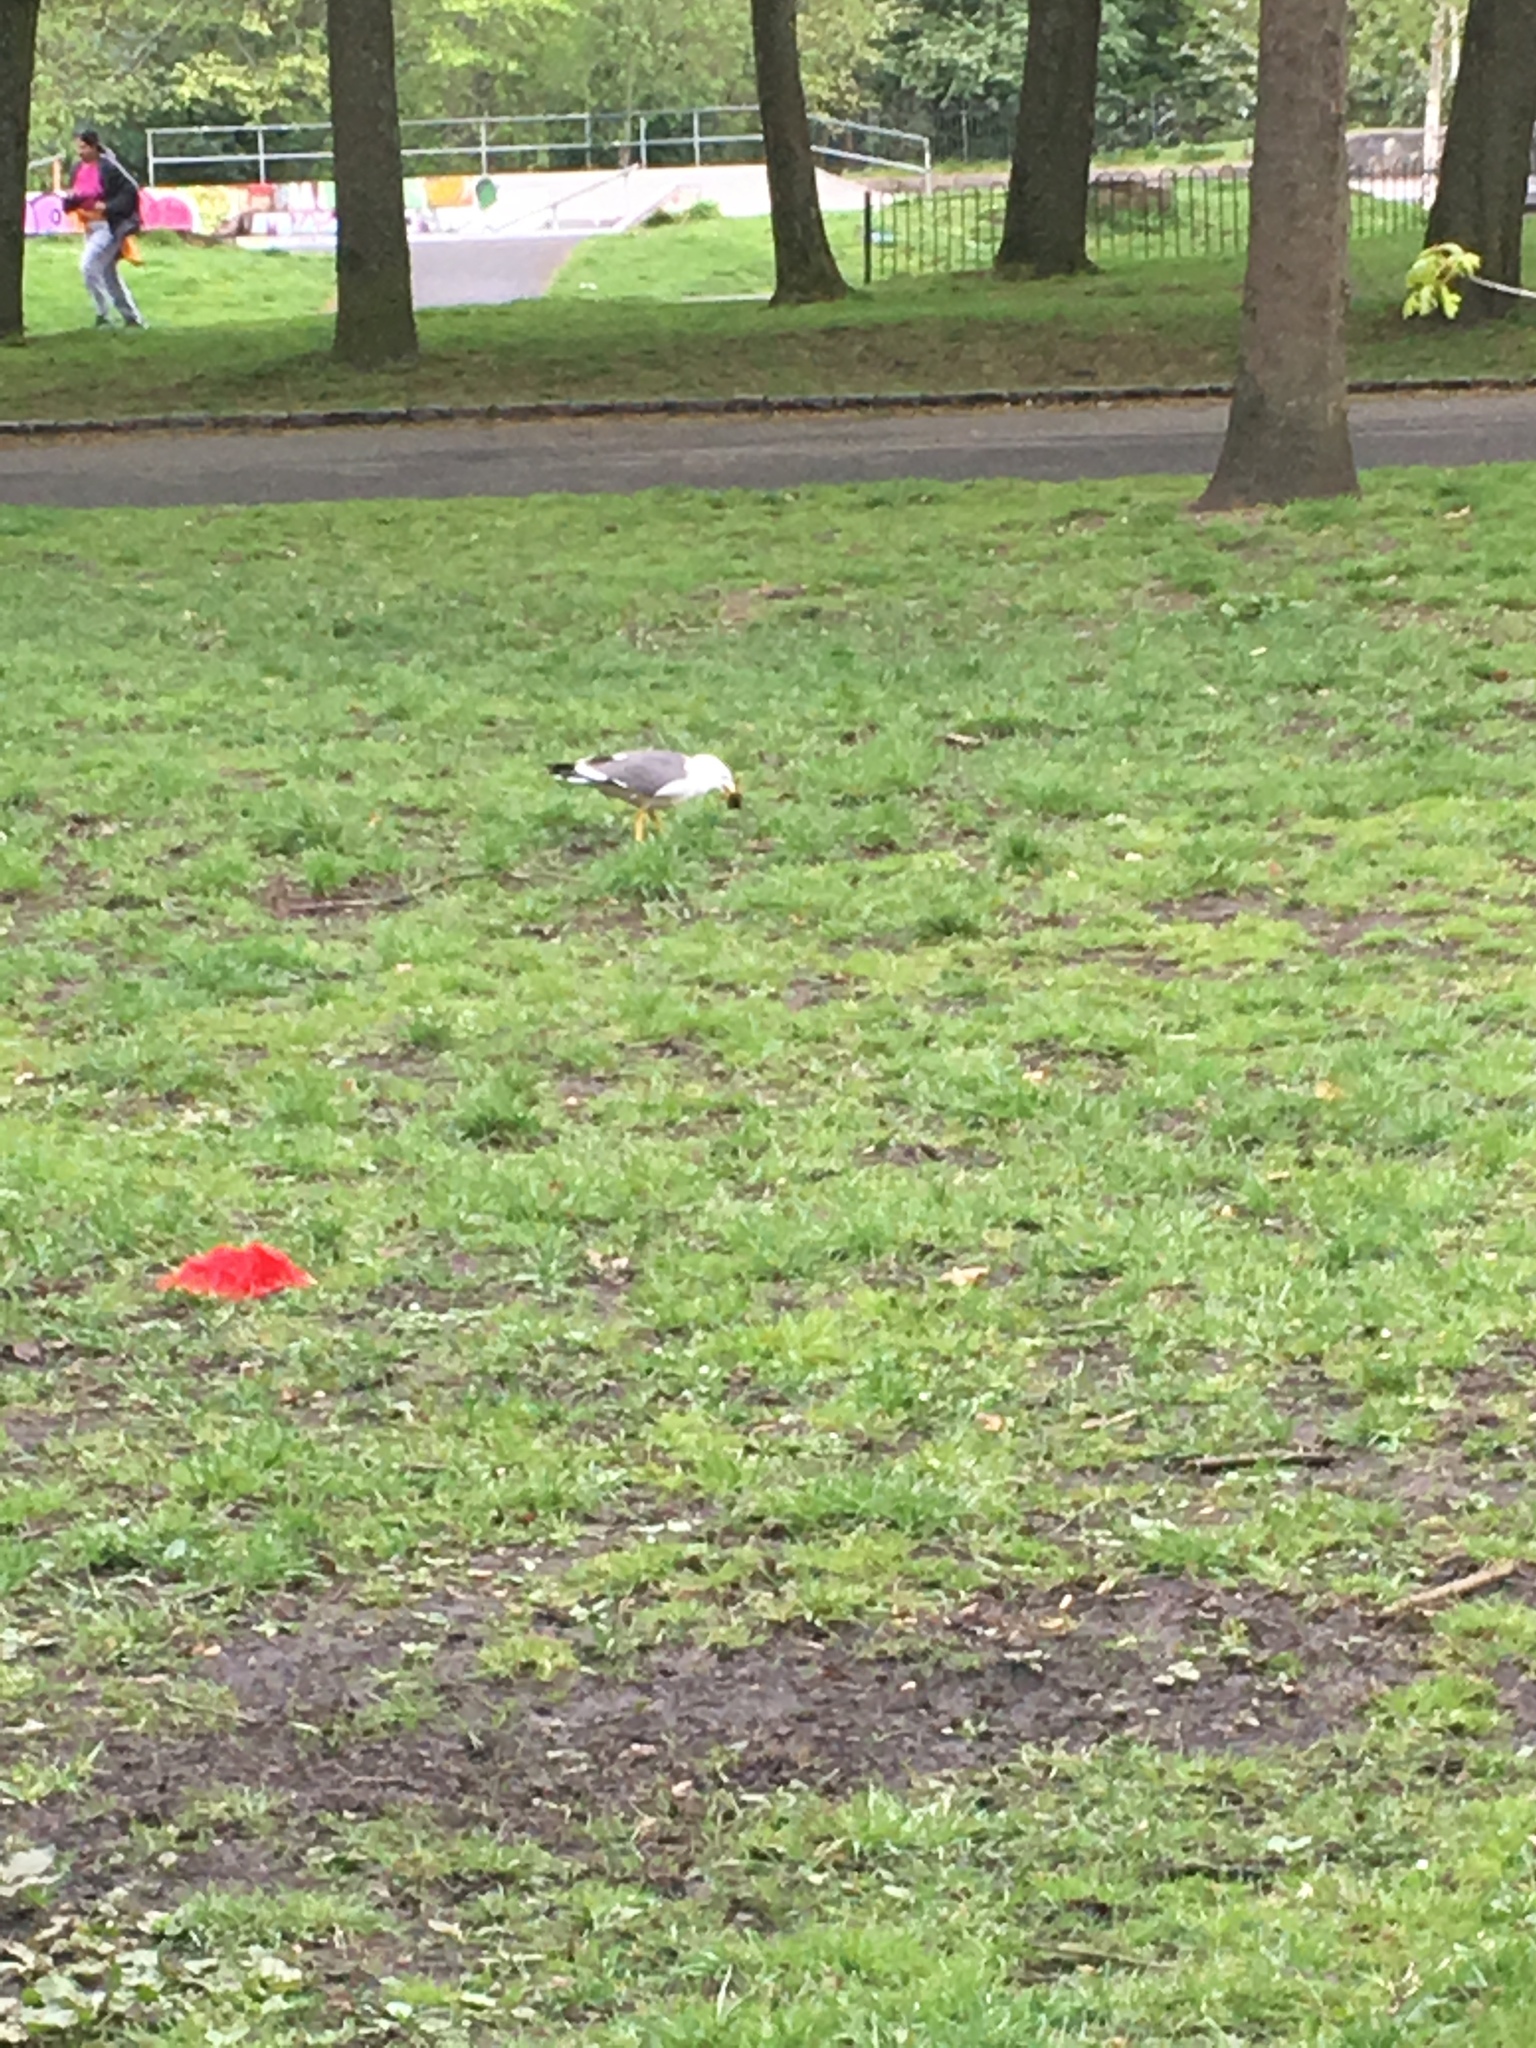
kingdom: Animalia
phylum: Chordata
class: Aves
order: Charadriiformes
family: Laridae
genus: Larus
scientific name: Larus fuscus
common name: Lesser black-backed gull
